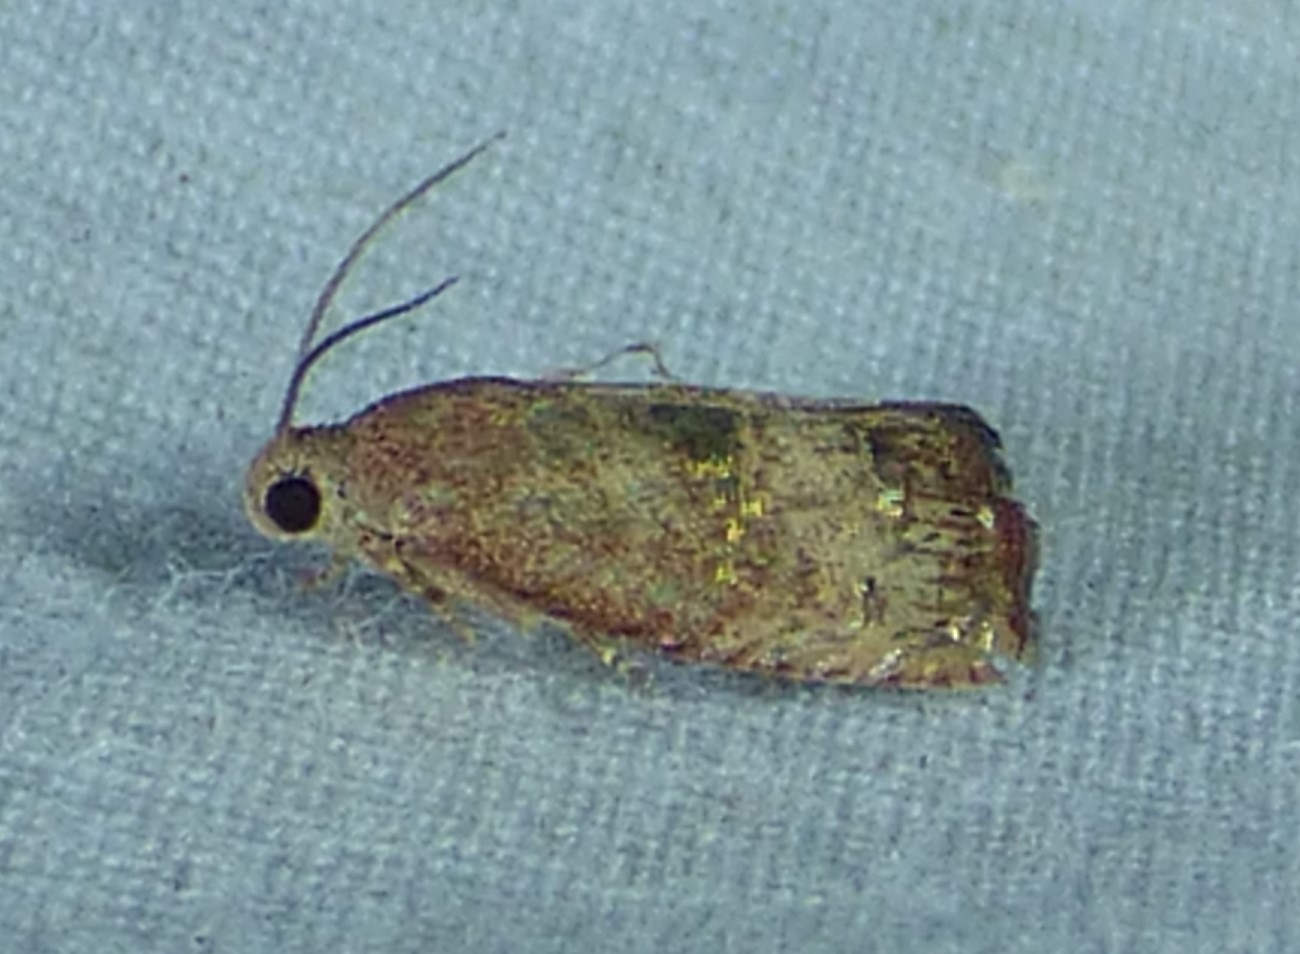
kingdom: Animalia
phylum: Arthropoda
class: Insecta
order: Lepidoptera
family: Tortricidae
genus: Cydia
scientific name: Cydia latiferreana
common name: Filbertworm moth
